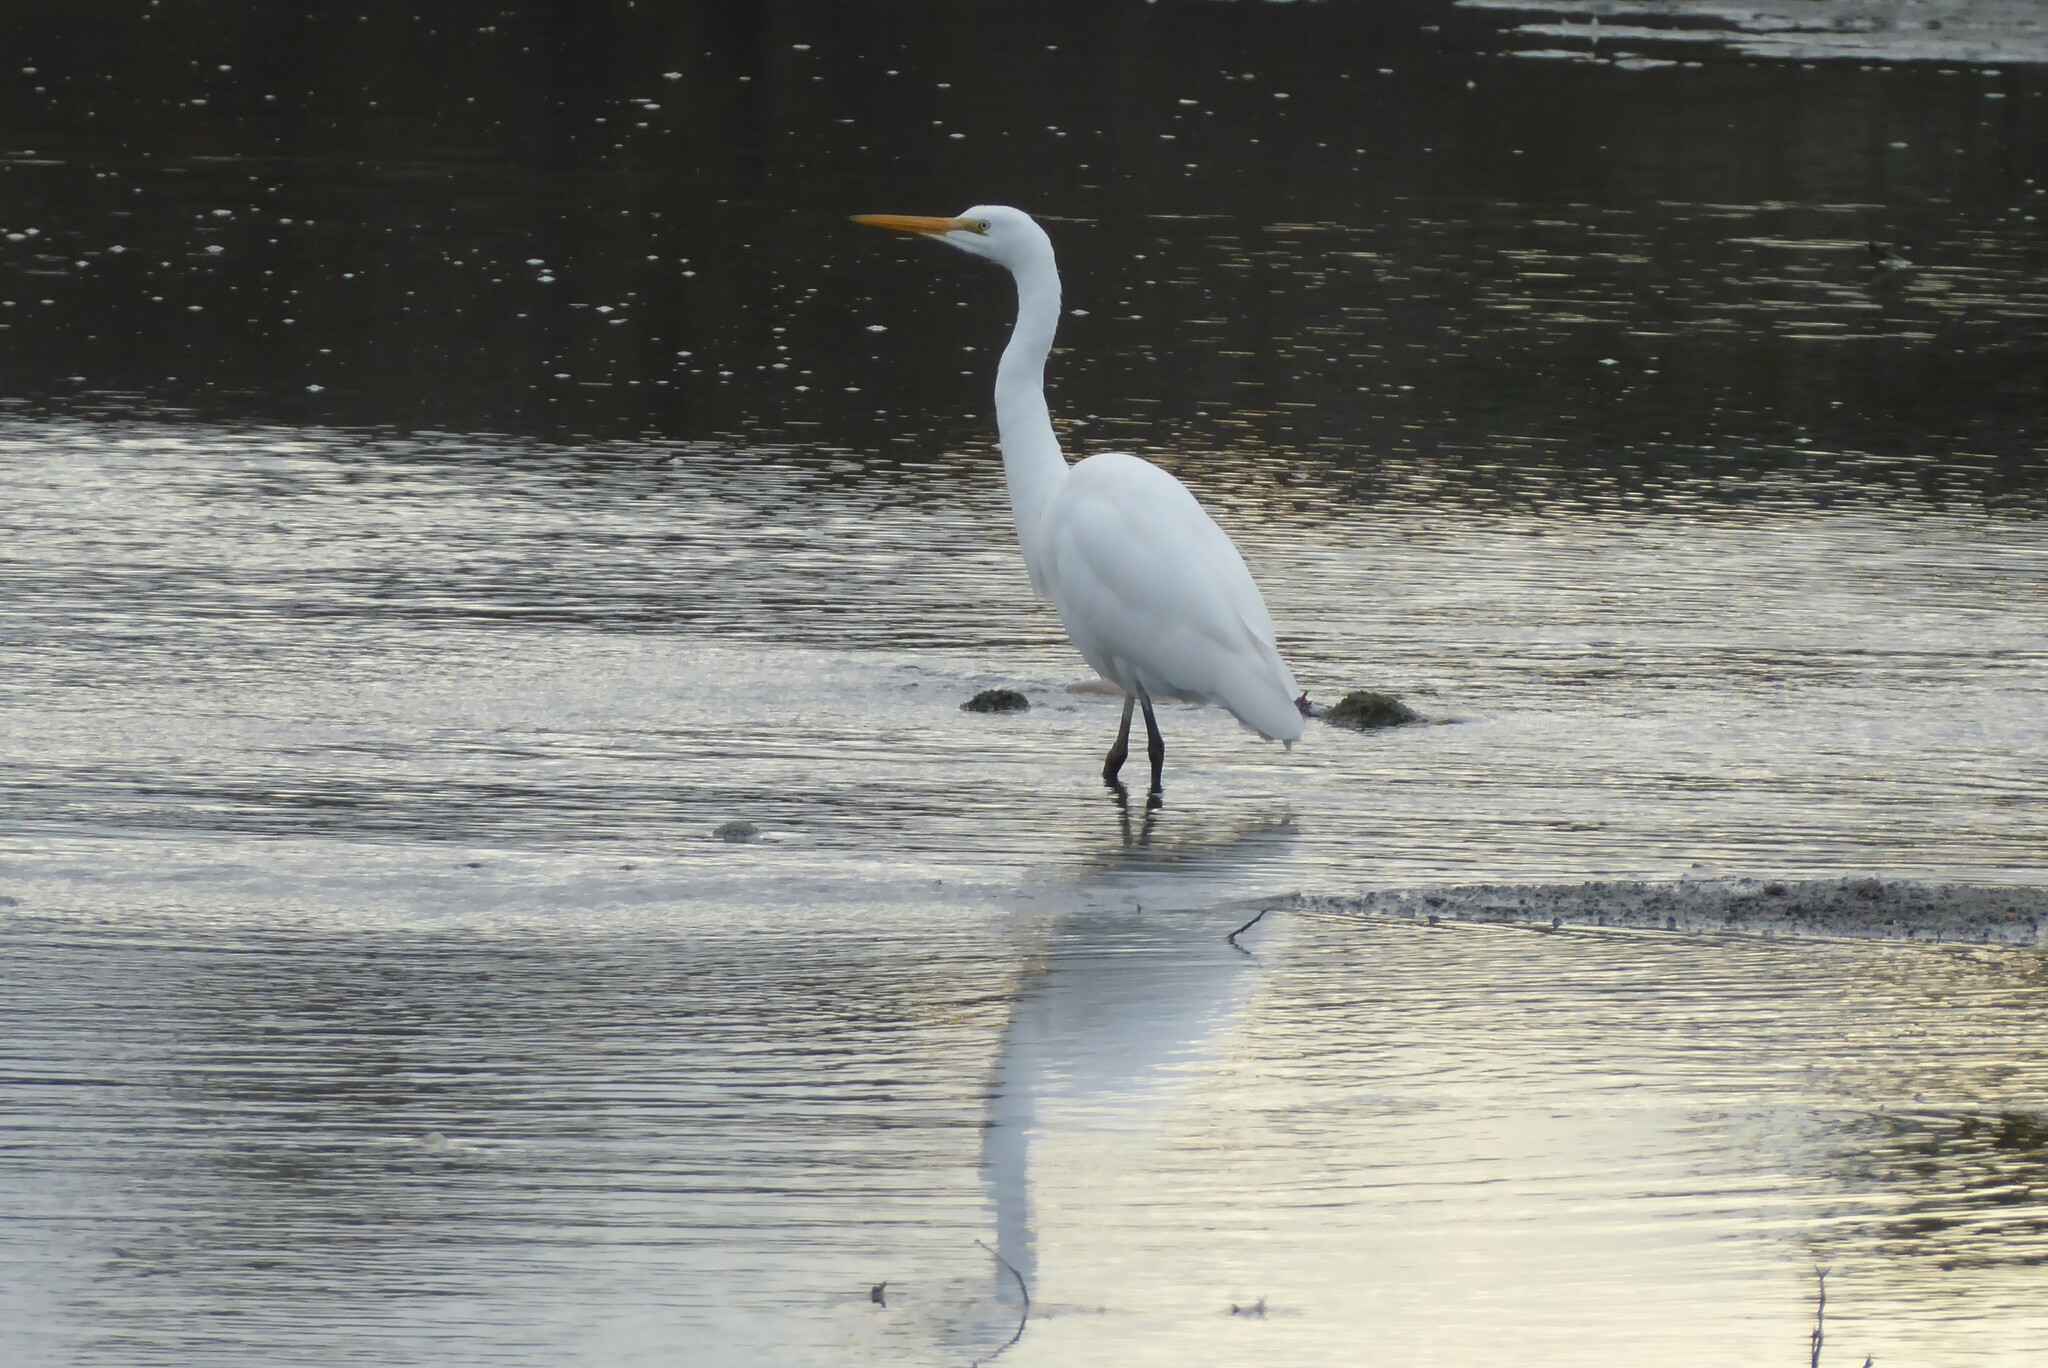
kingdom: Animalia
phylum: Chordata
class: Aves
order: Pelecaniformes
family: Ardeidae
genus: Ardea
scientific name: Ardea modesta
